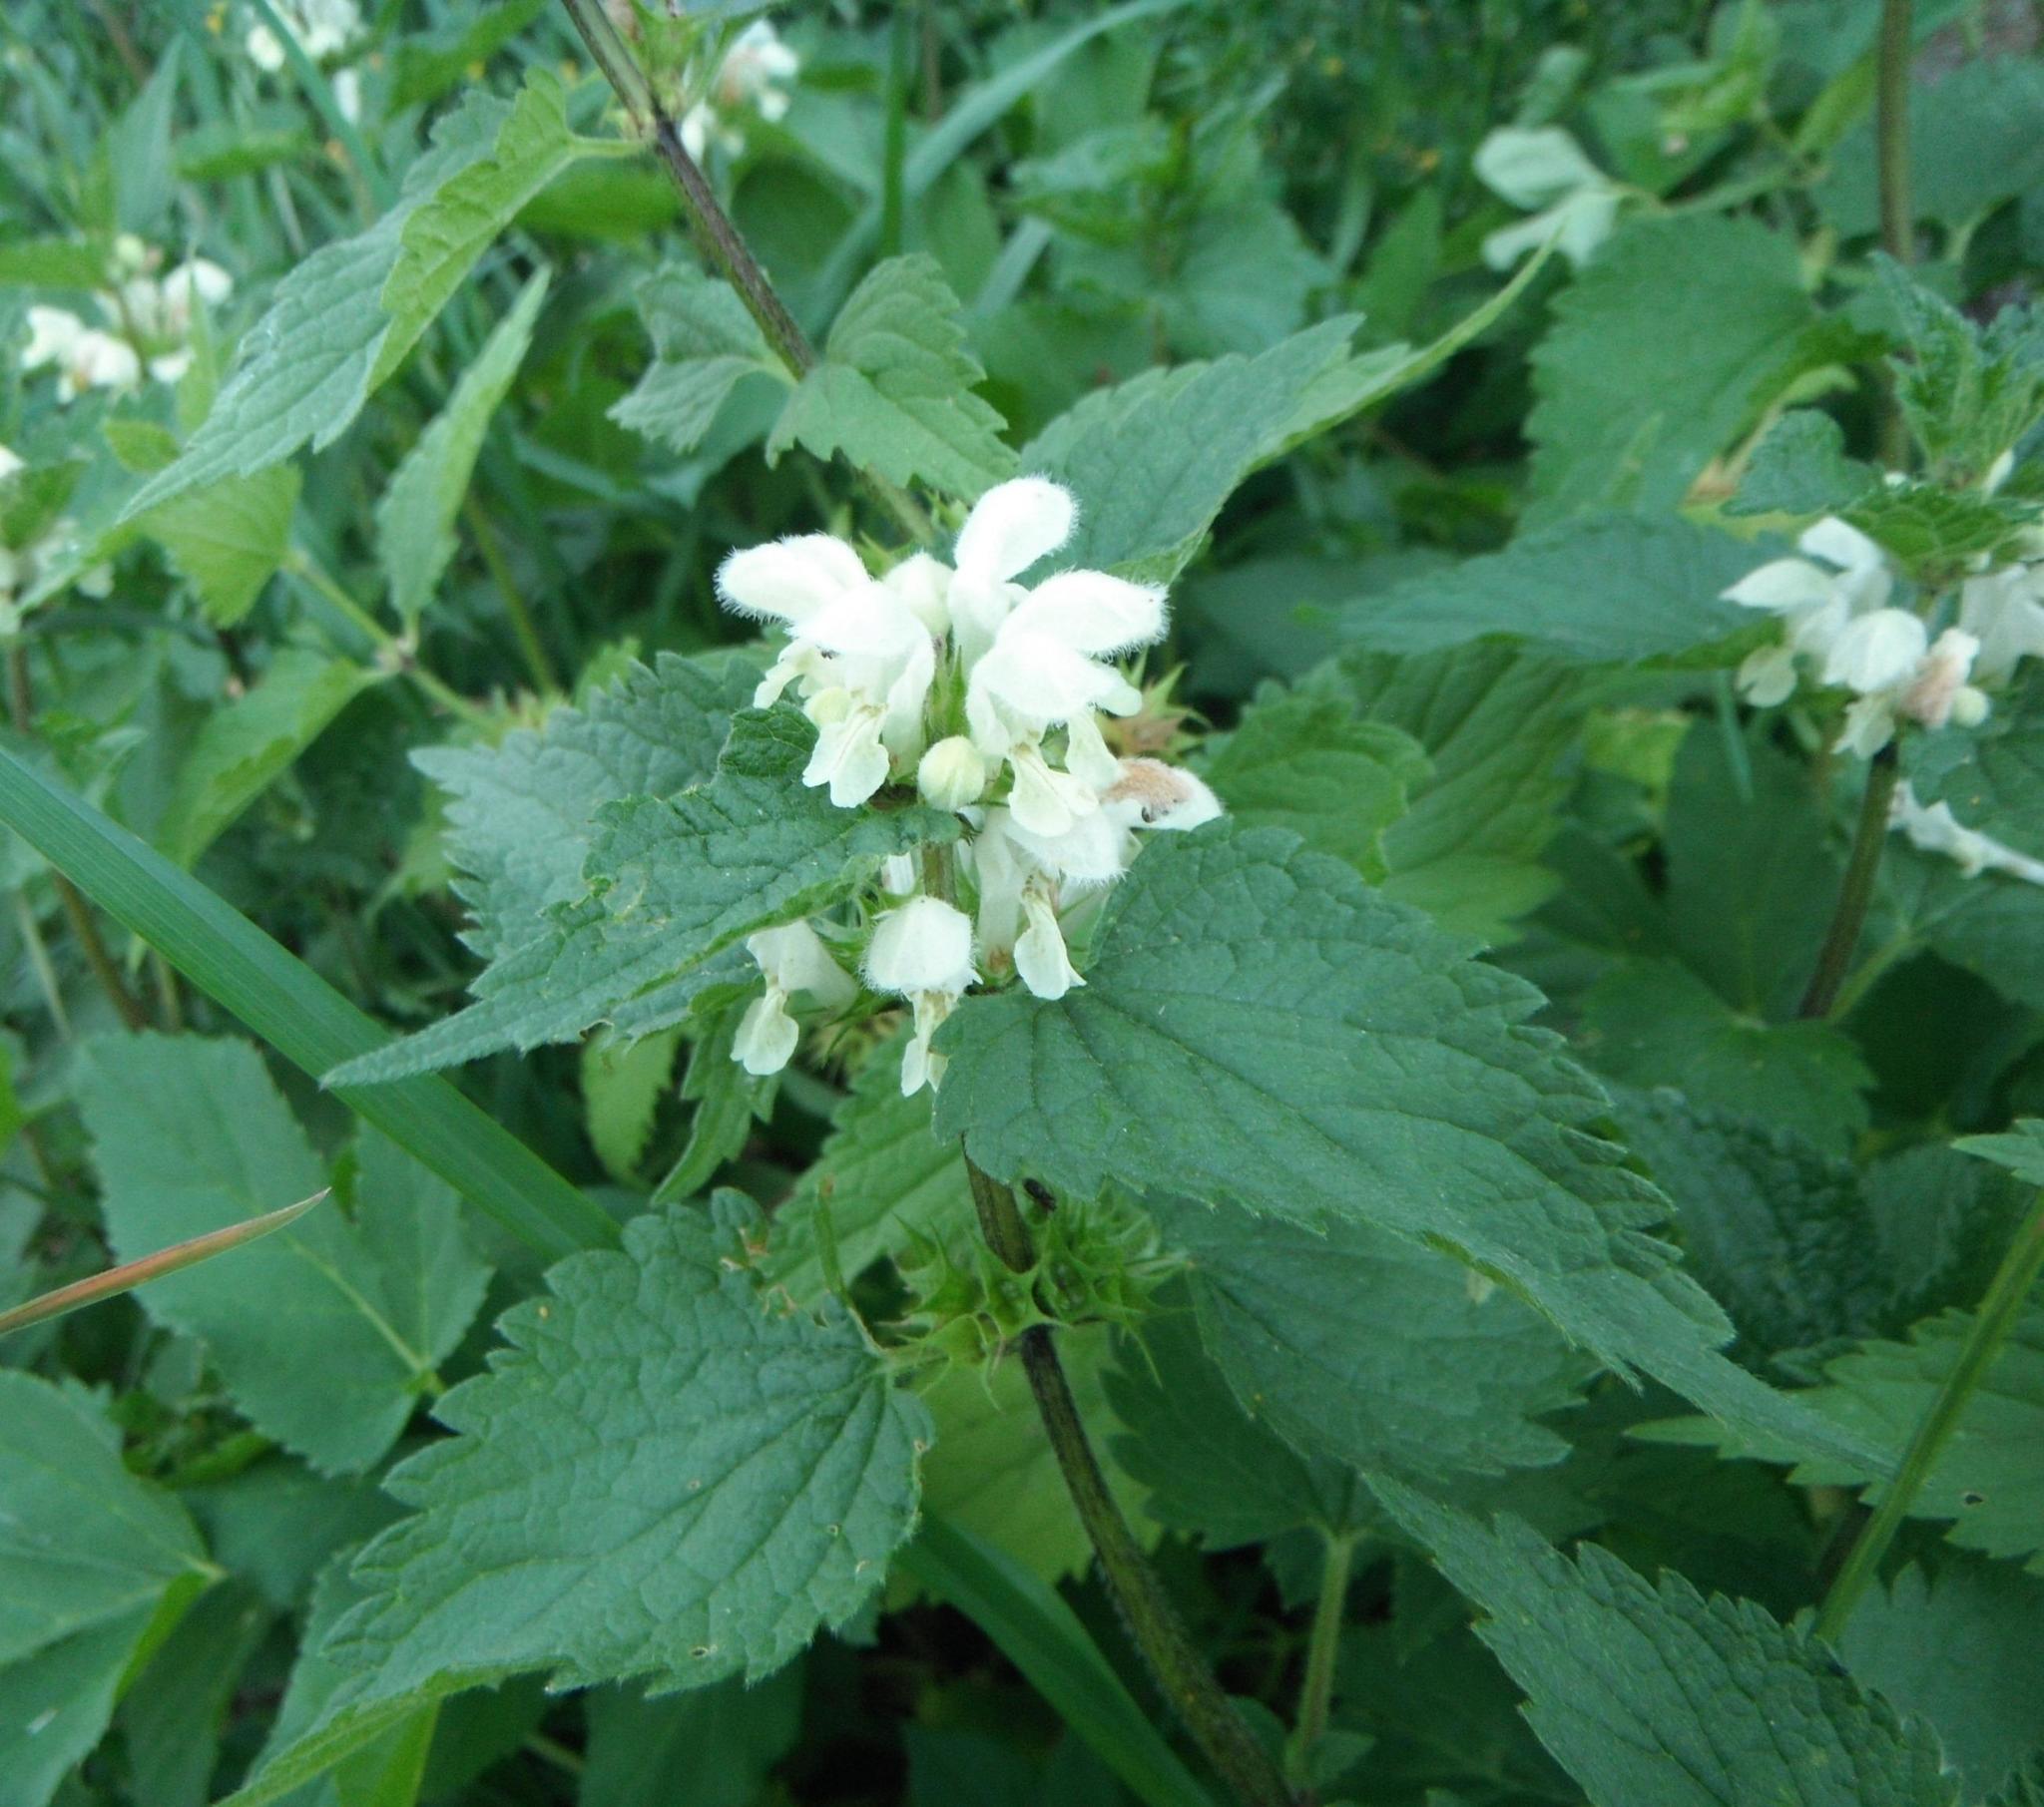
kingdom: Plantae
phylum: Tracheophyta
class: Magnoliopsida
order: Lamiales
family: Lamiaceae
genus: Lamium
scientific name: Lamium album
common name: White dead-nettle
